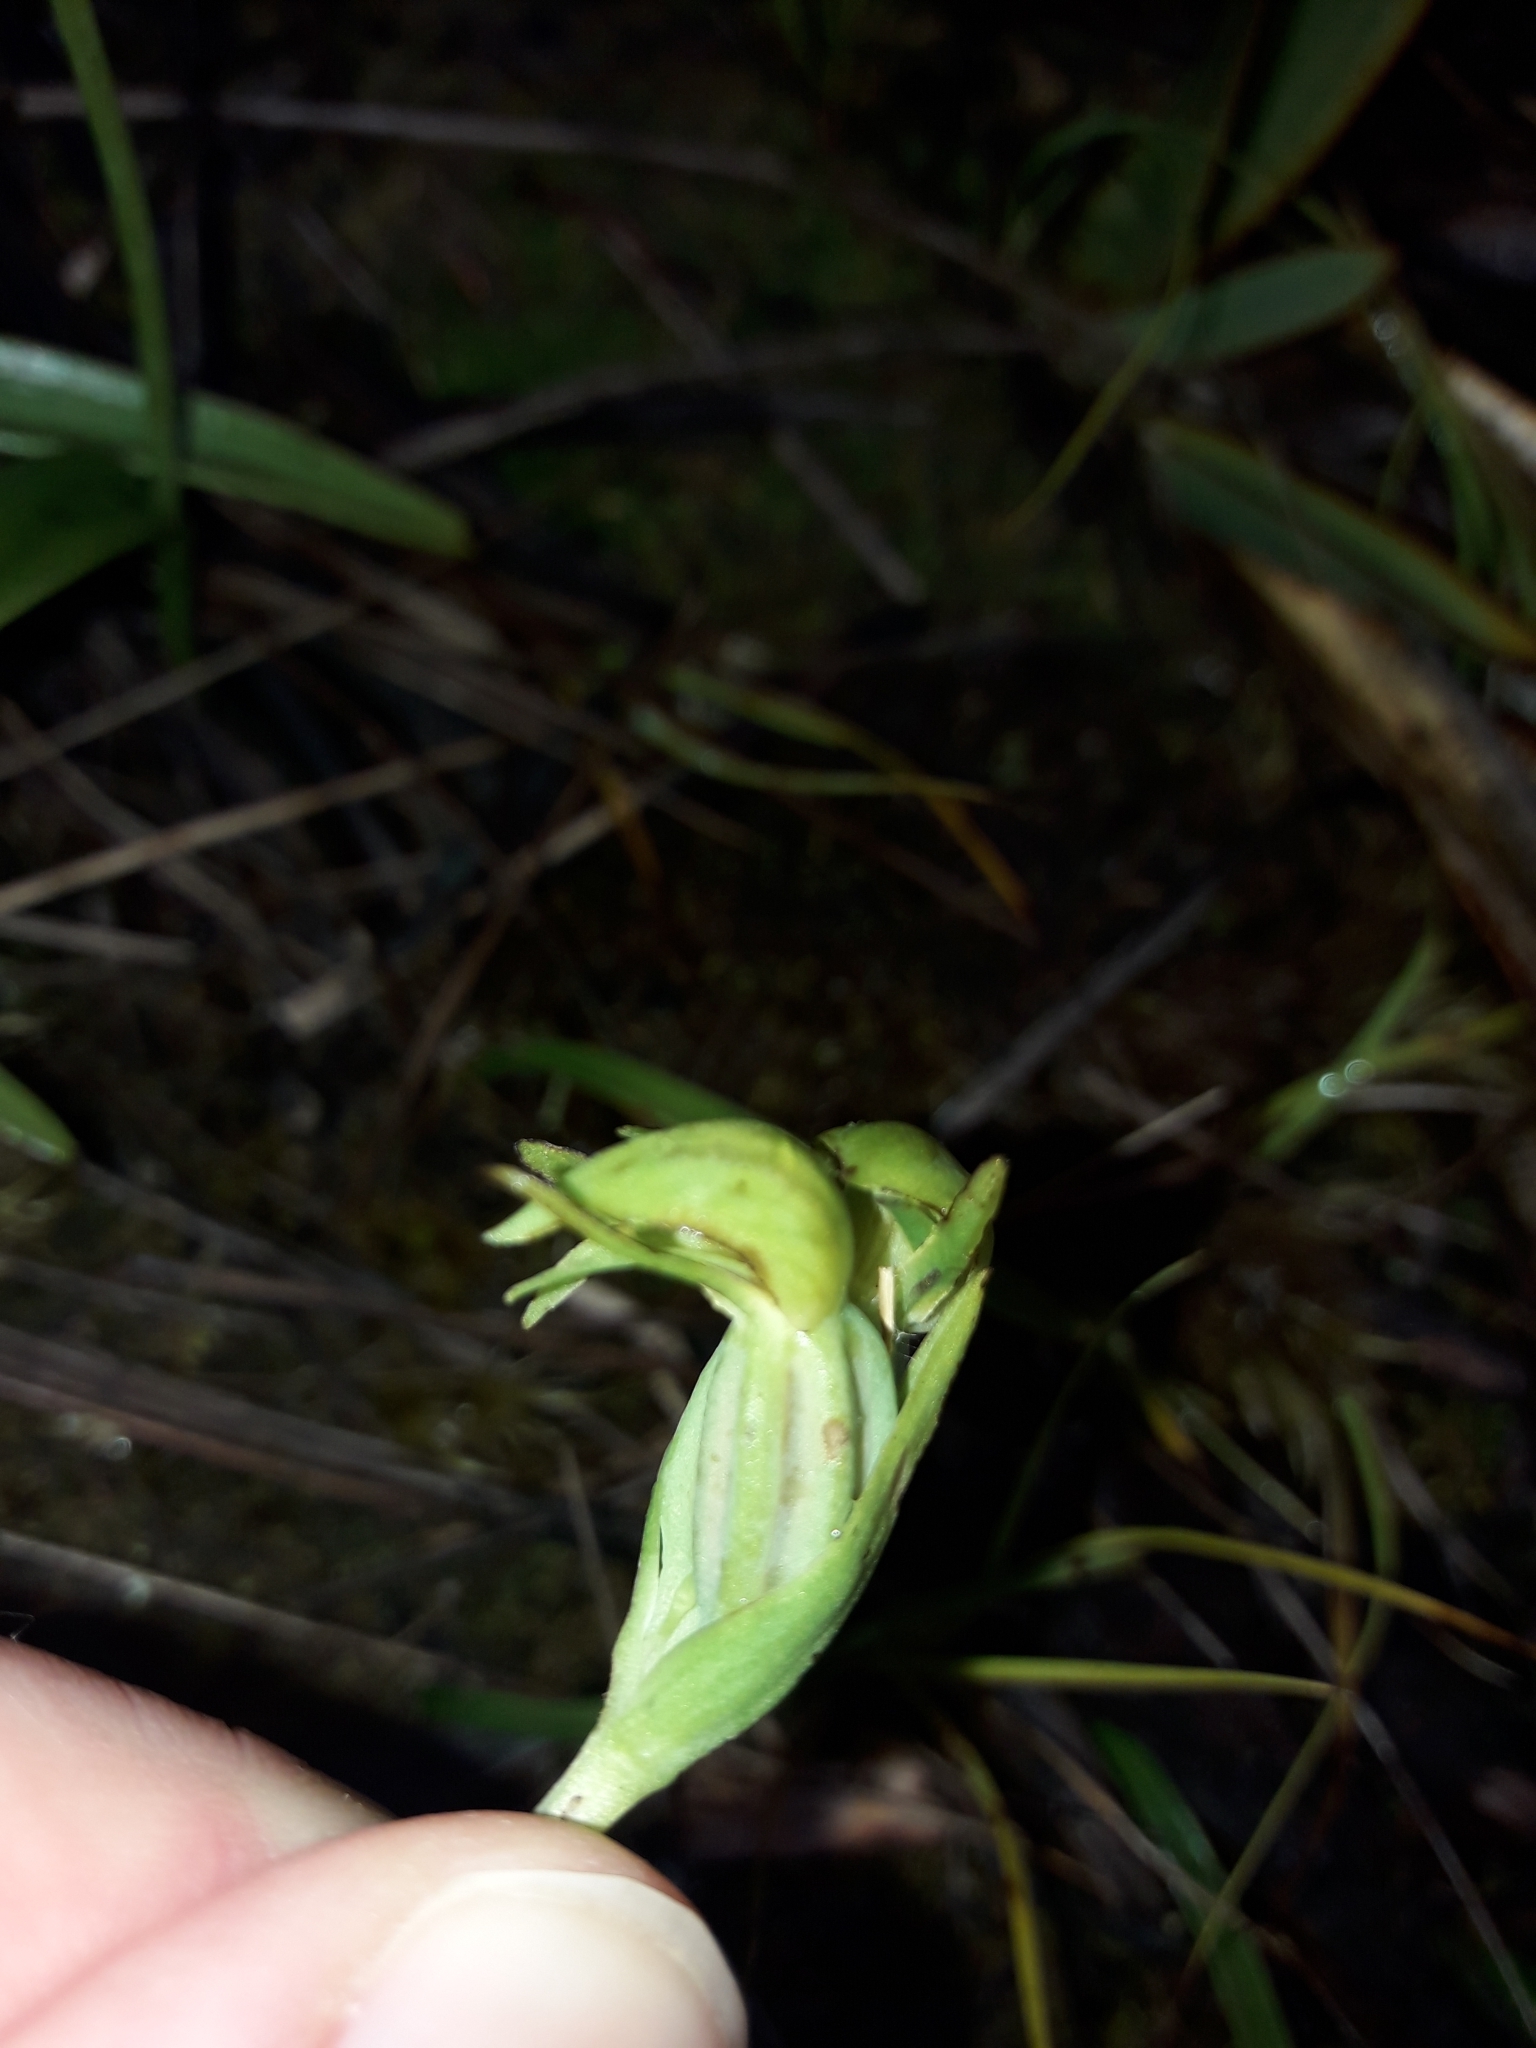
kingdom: Plantae
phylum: Tracheophyta
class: Liliopsida
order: Asparagales
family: Orchidaceae
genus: Waireia
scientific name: Waireia stenopetala
